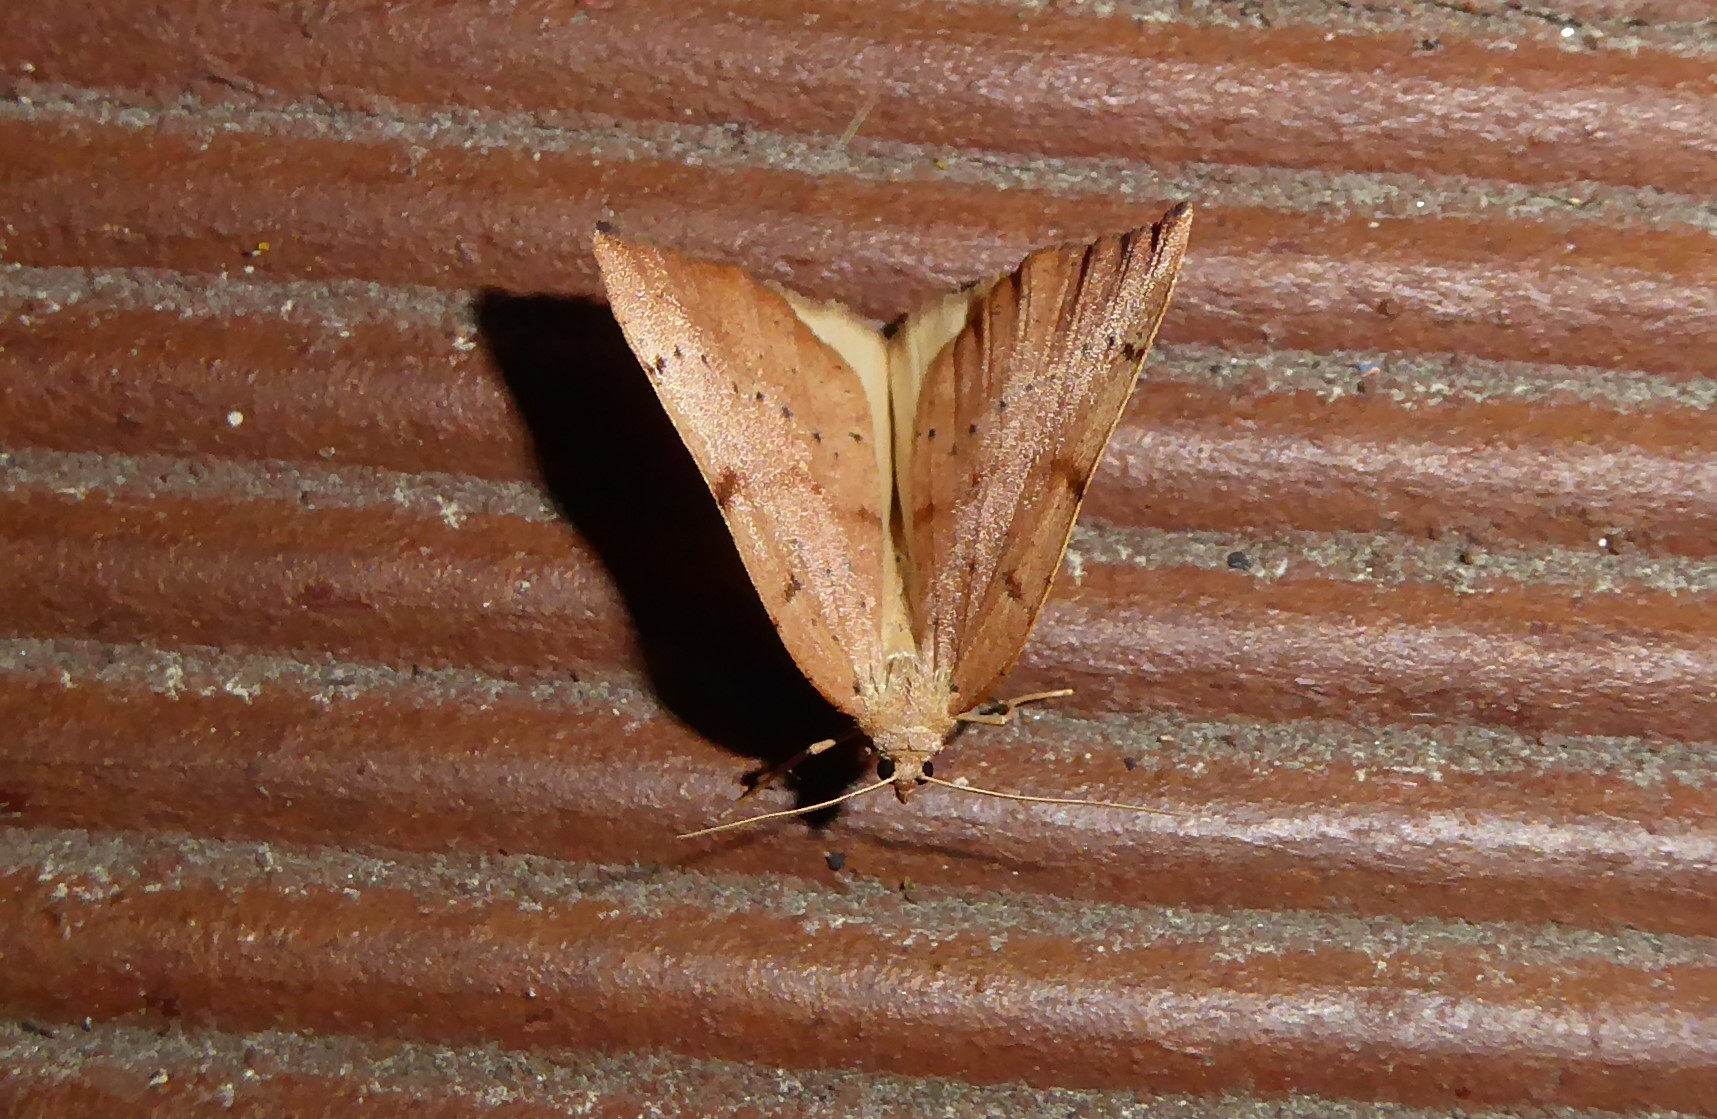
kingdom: Animalia
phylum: Arthropoda
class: Insecta
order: Lepidoptera
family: Geometridae
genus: Sestra
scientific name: Sestra humeraria
